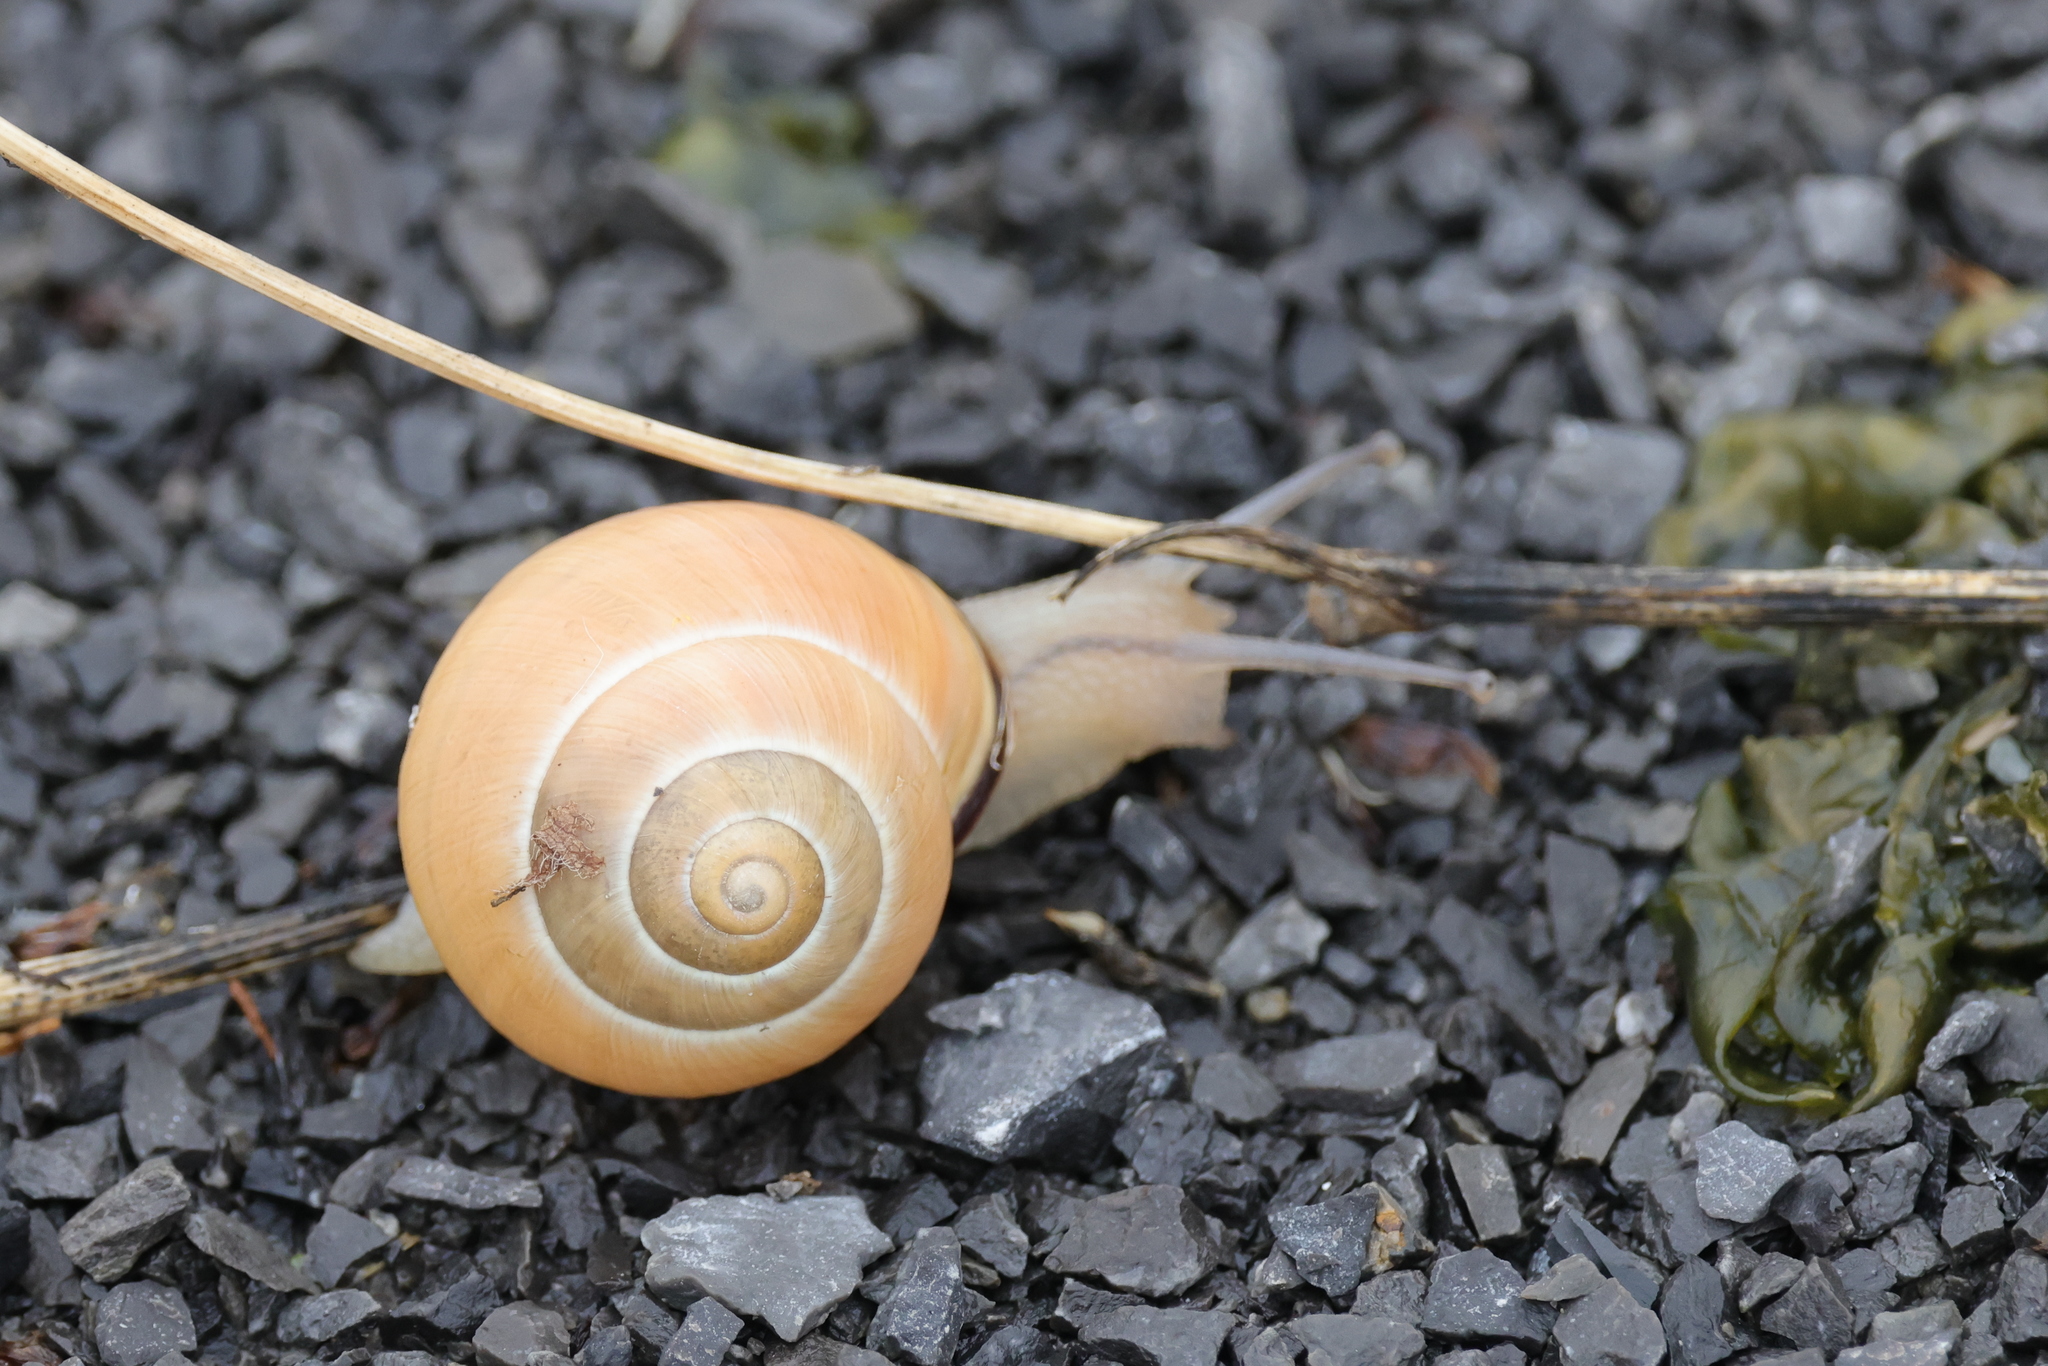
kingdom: Animalia
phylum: Mollusca
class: Gastropoda
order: Stylommatophora
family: Helicidae
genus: Cepaea
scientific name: Cepaea nemoralis
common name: Grovesnail
